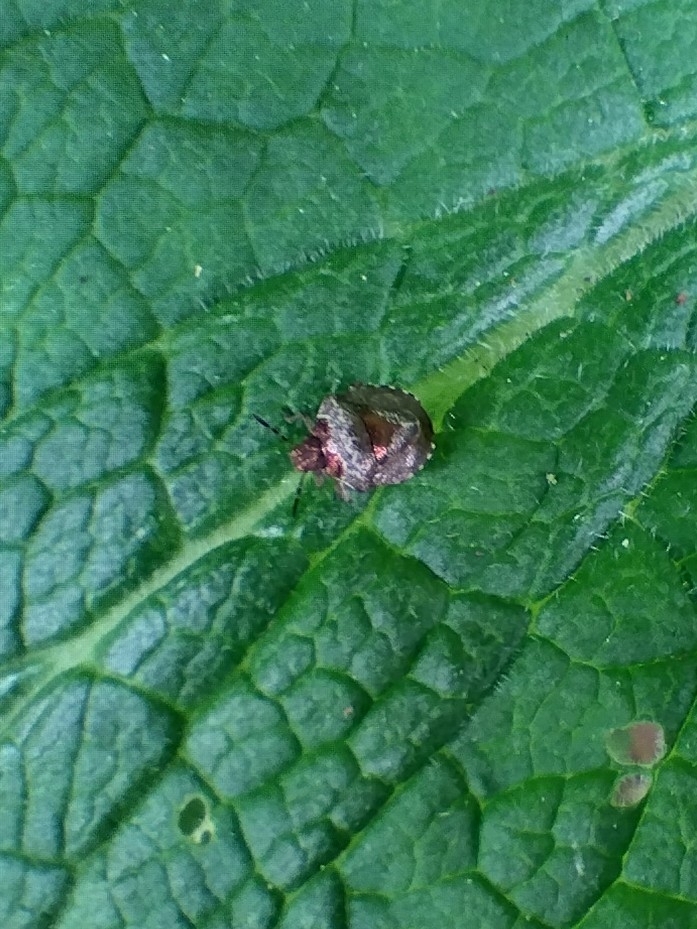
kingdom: Animalia
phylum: Arthropoda
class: Insecta
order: Hemiptera
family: Pentatomidae
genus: Eysarcoris
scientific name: Eysarcoris venustissimus
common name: Woundwort shieldbug
